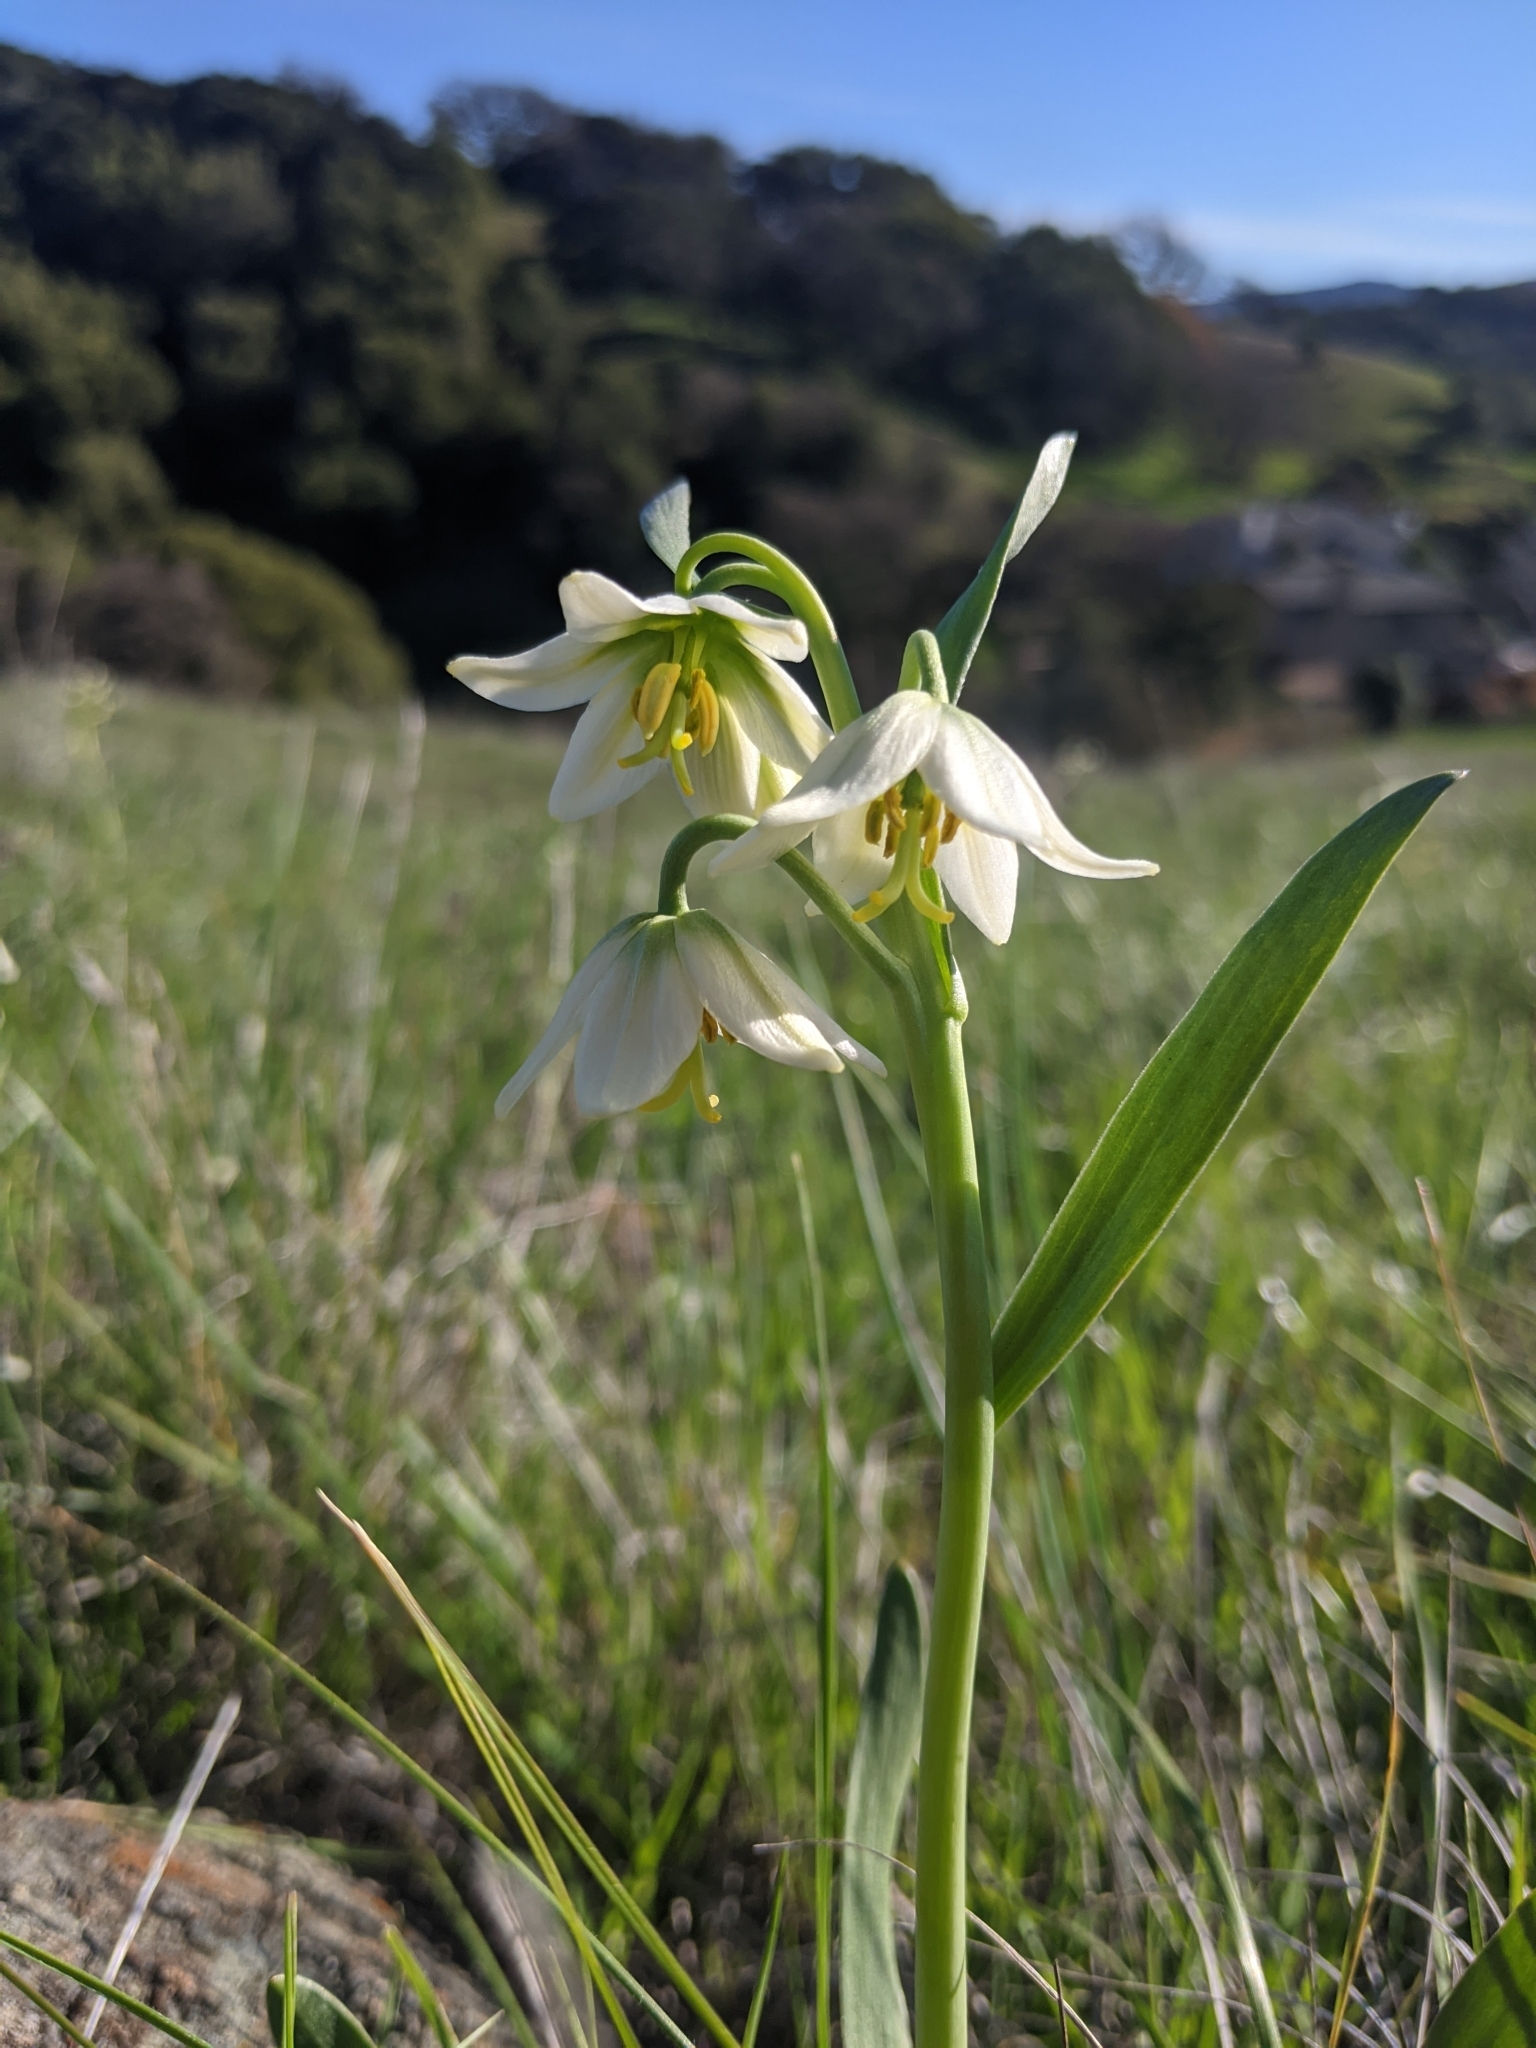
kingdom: Plantae
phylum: Tracheophyta
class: Liliopsida
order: Liliales
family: Liliaceae
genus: Fritillaria
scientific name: Fritillaria liliacea
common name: Fragrant fritillary
